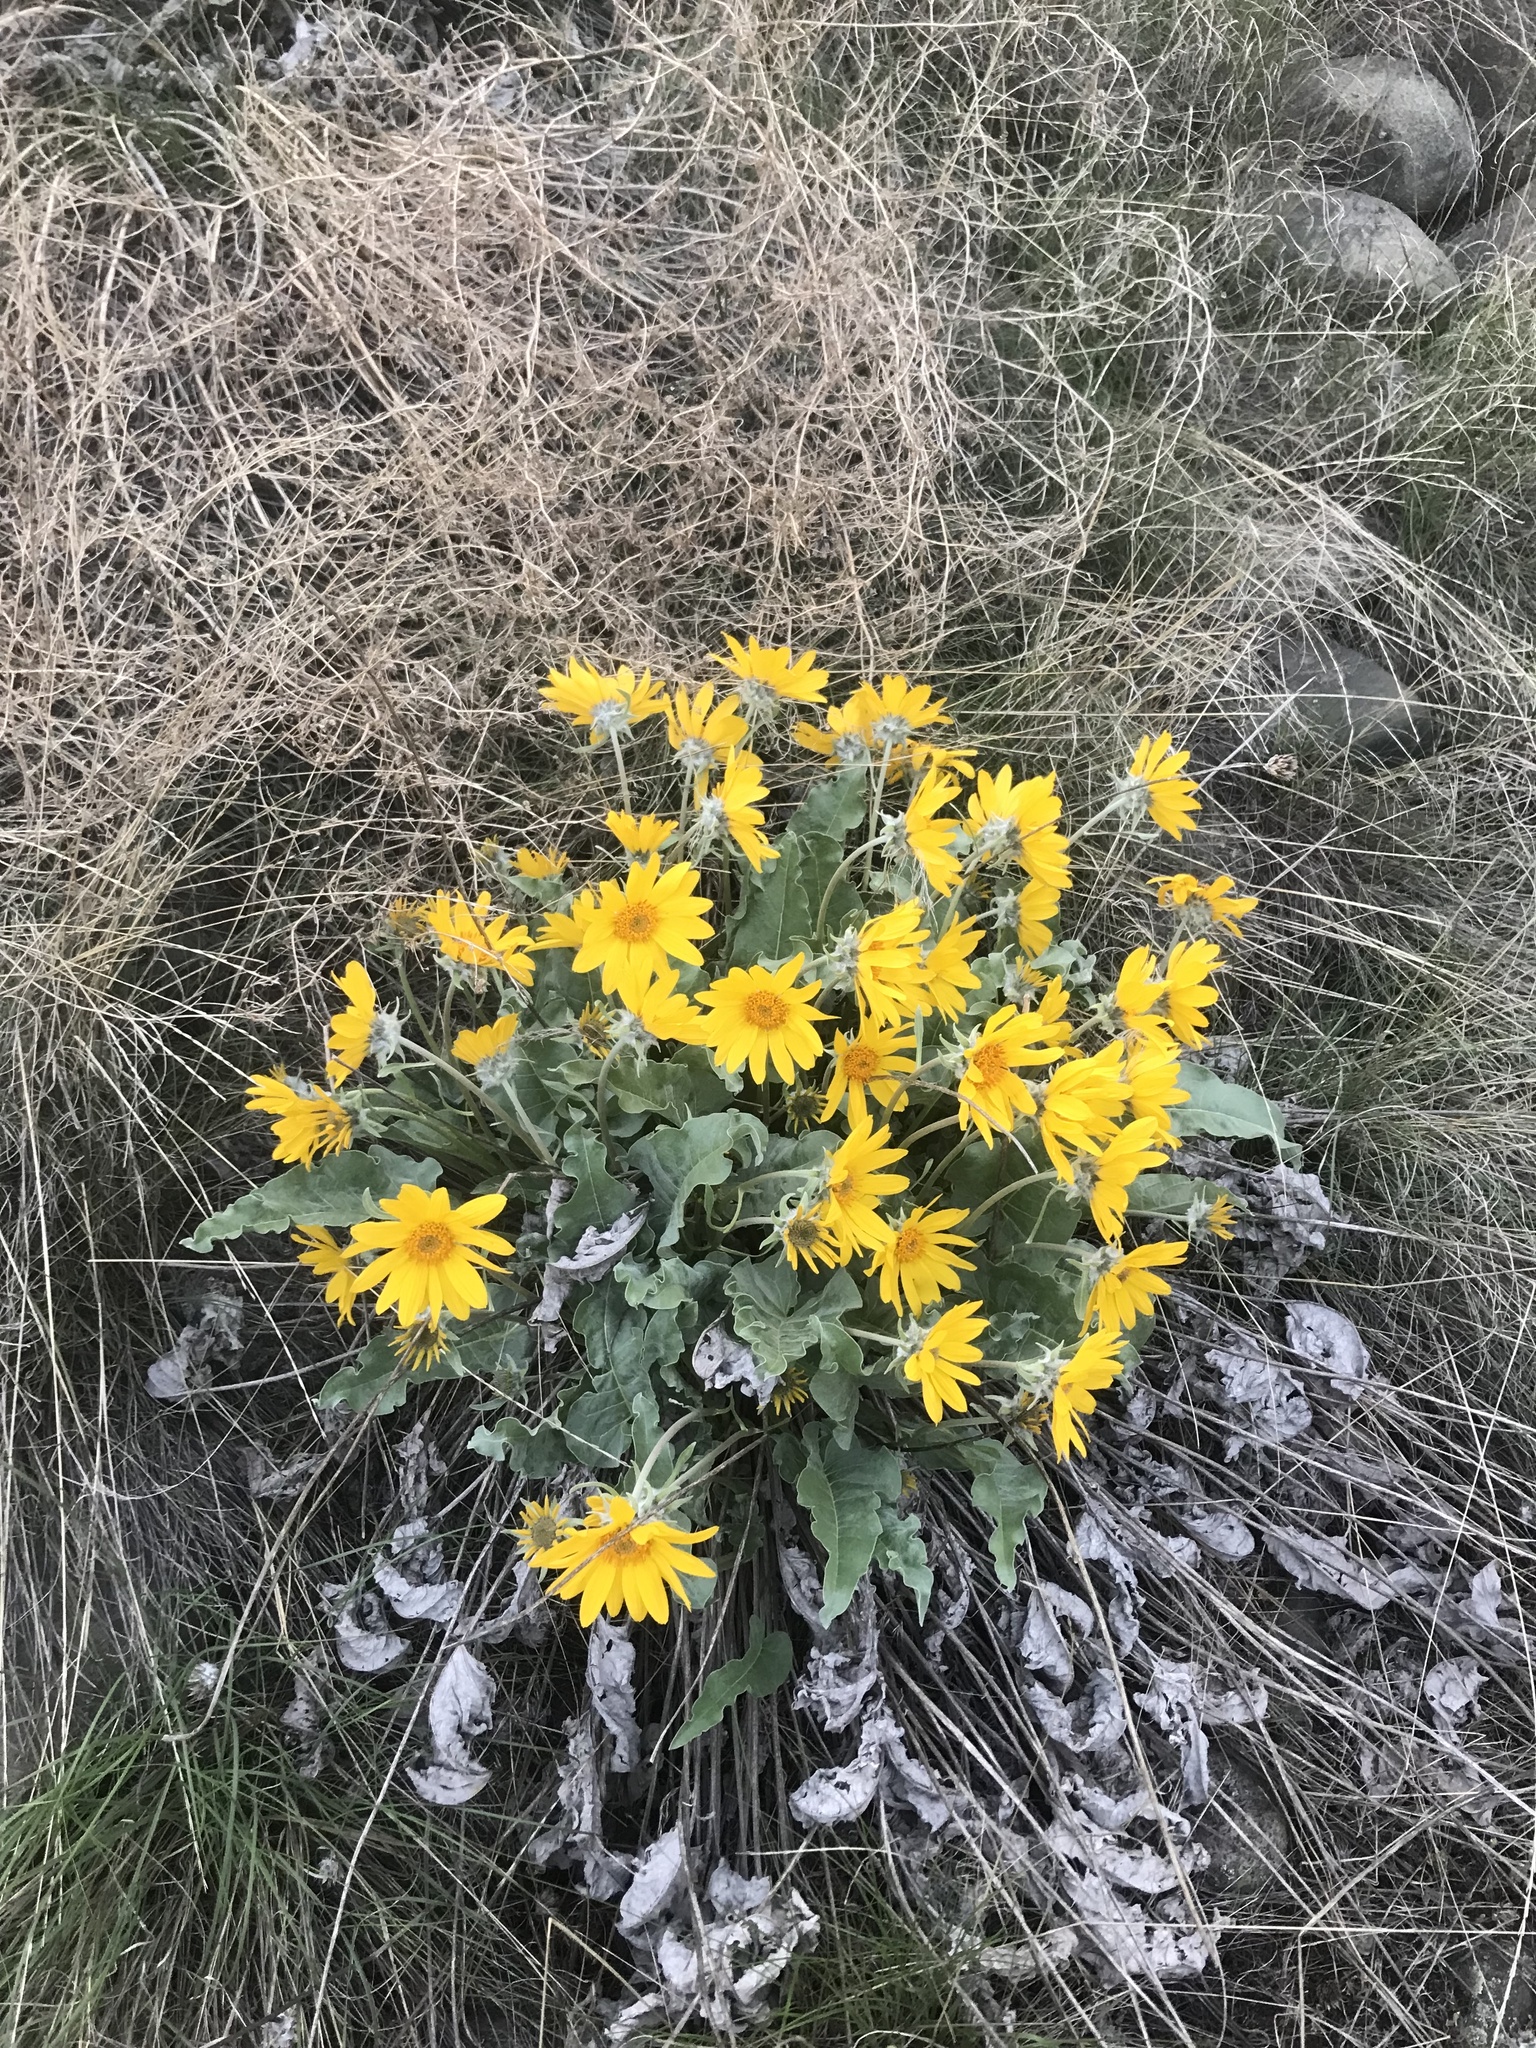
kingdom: Plantae
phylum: Tracheophyta
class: Magnoliopsida
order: Asterales
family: Asteraceae
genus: Wyethia
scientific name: Wyethia sagittata
